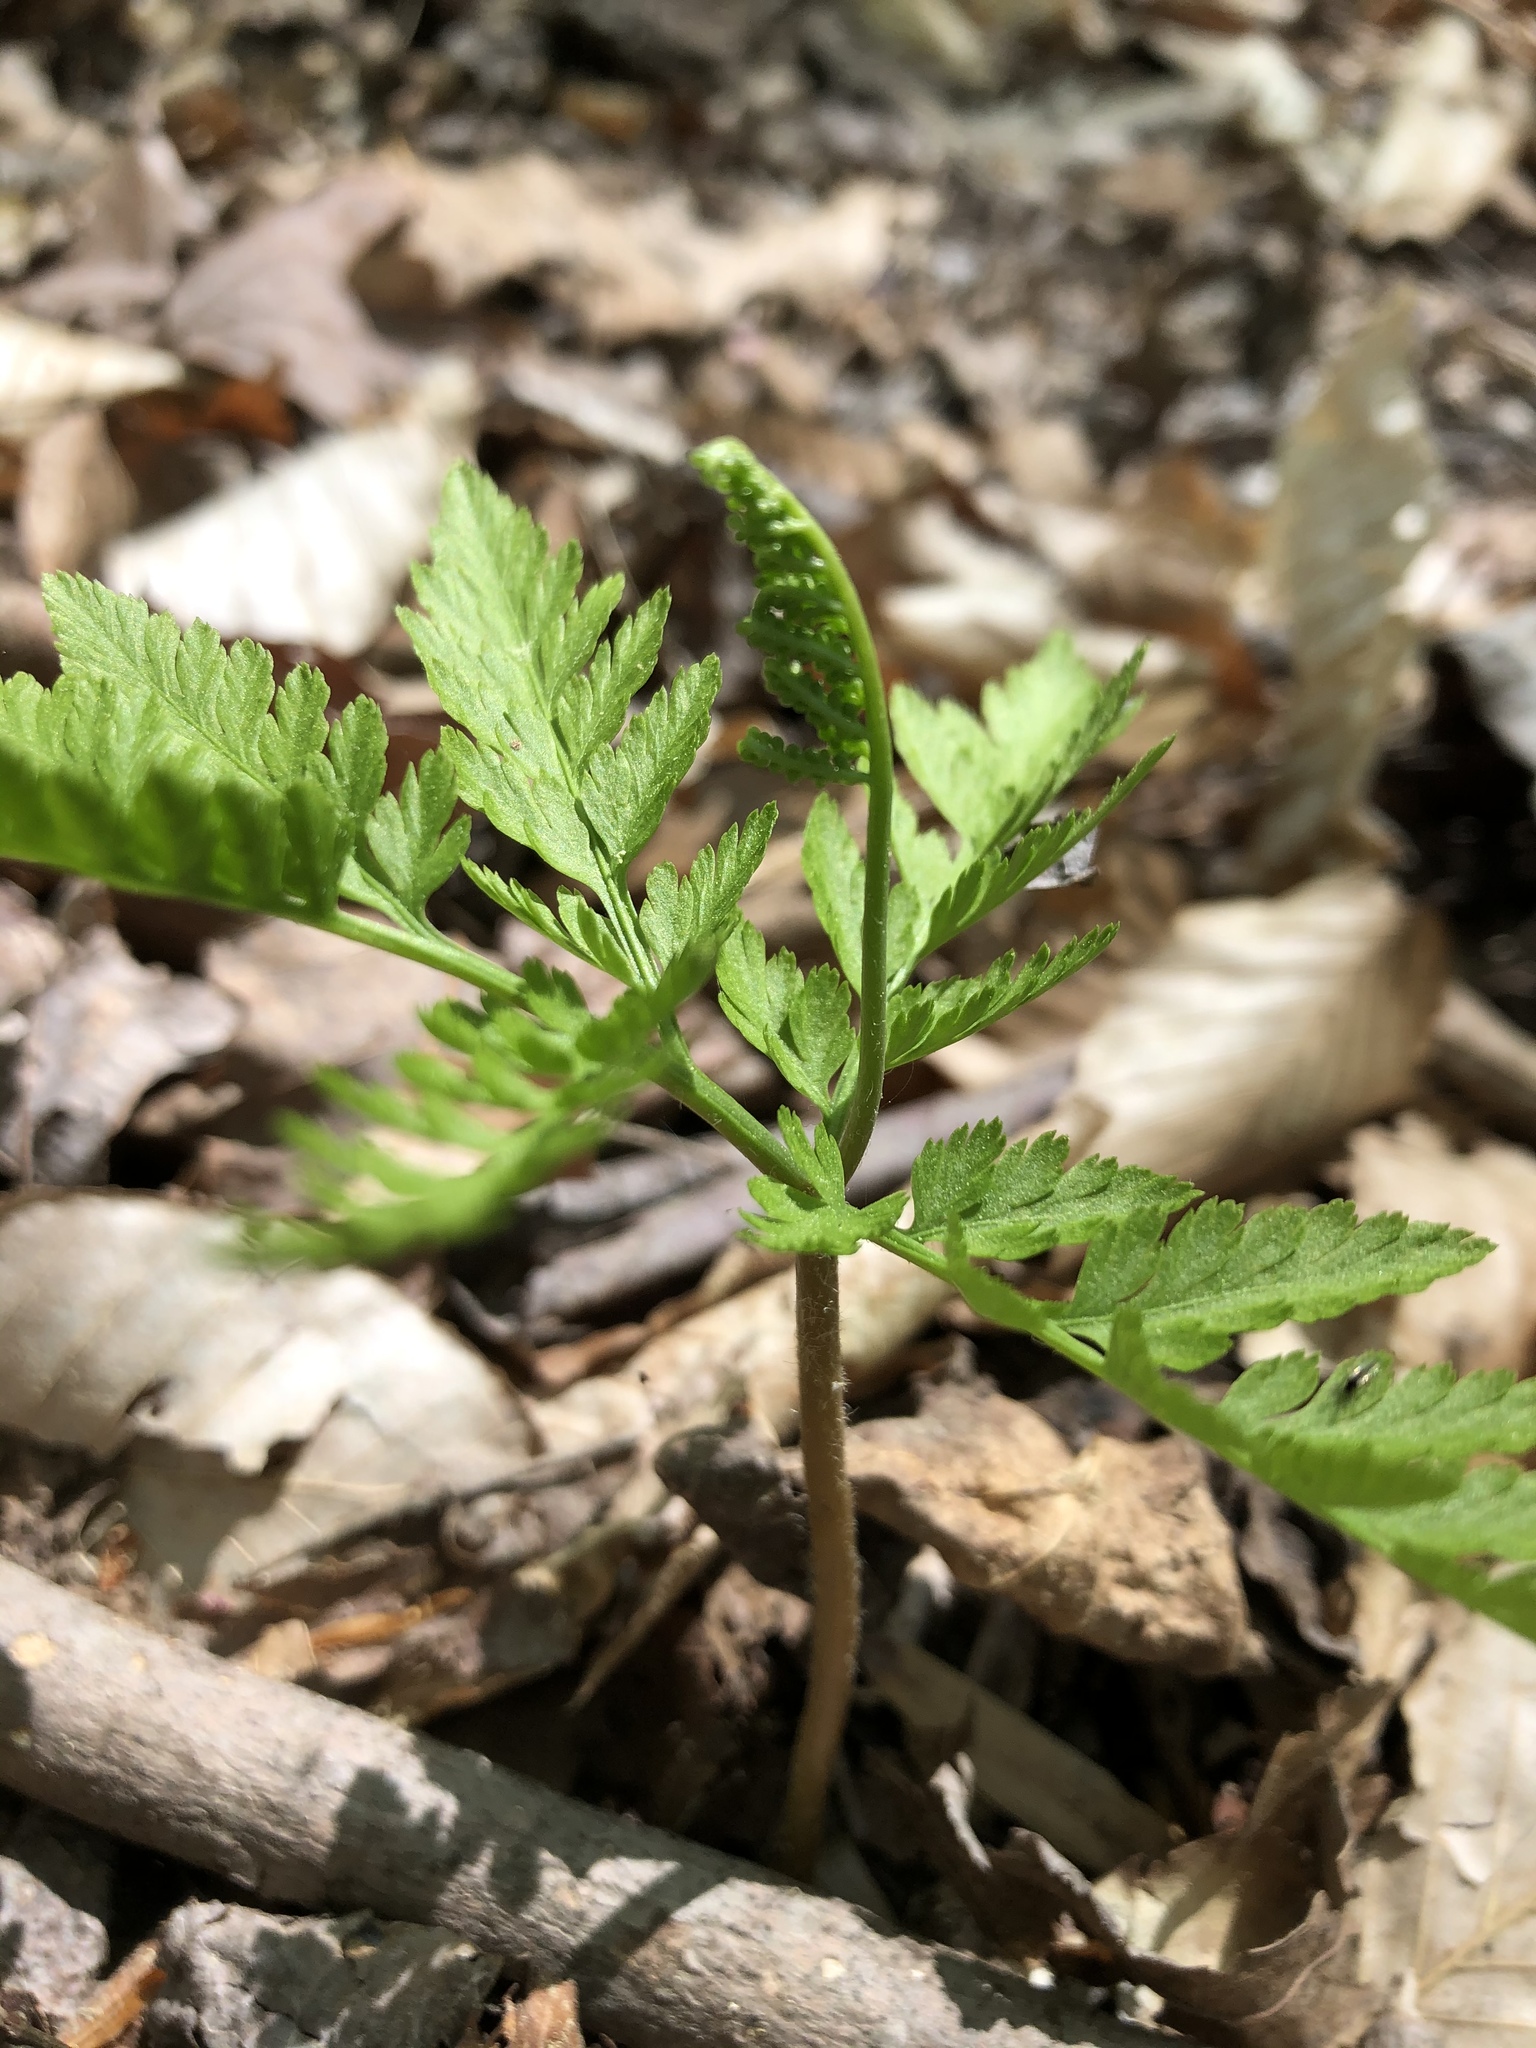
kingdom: Plantae
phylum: Tracheophyta
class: Polypodiopsida
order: Ophioglossales
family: Ophioglossaceae
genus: Botrypus
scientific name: Botrypus virginianus
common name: Common grapefern
